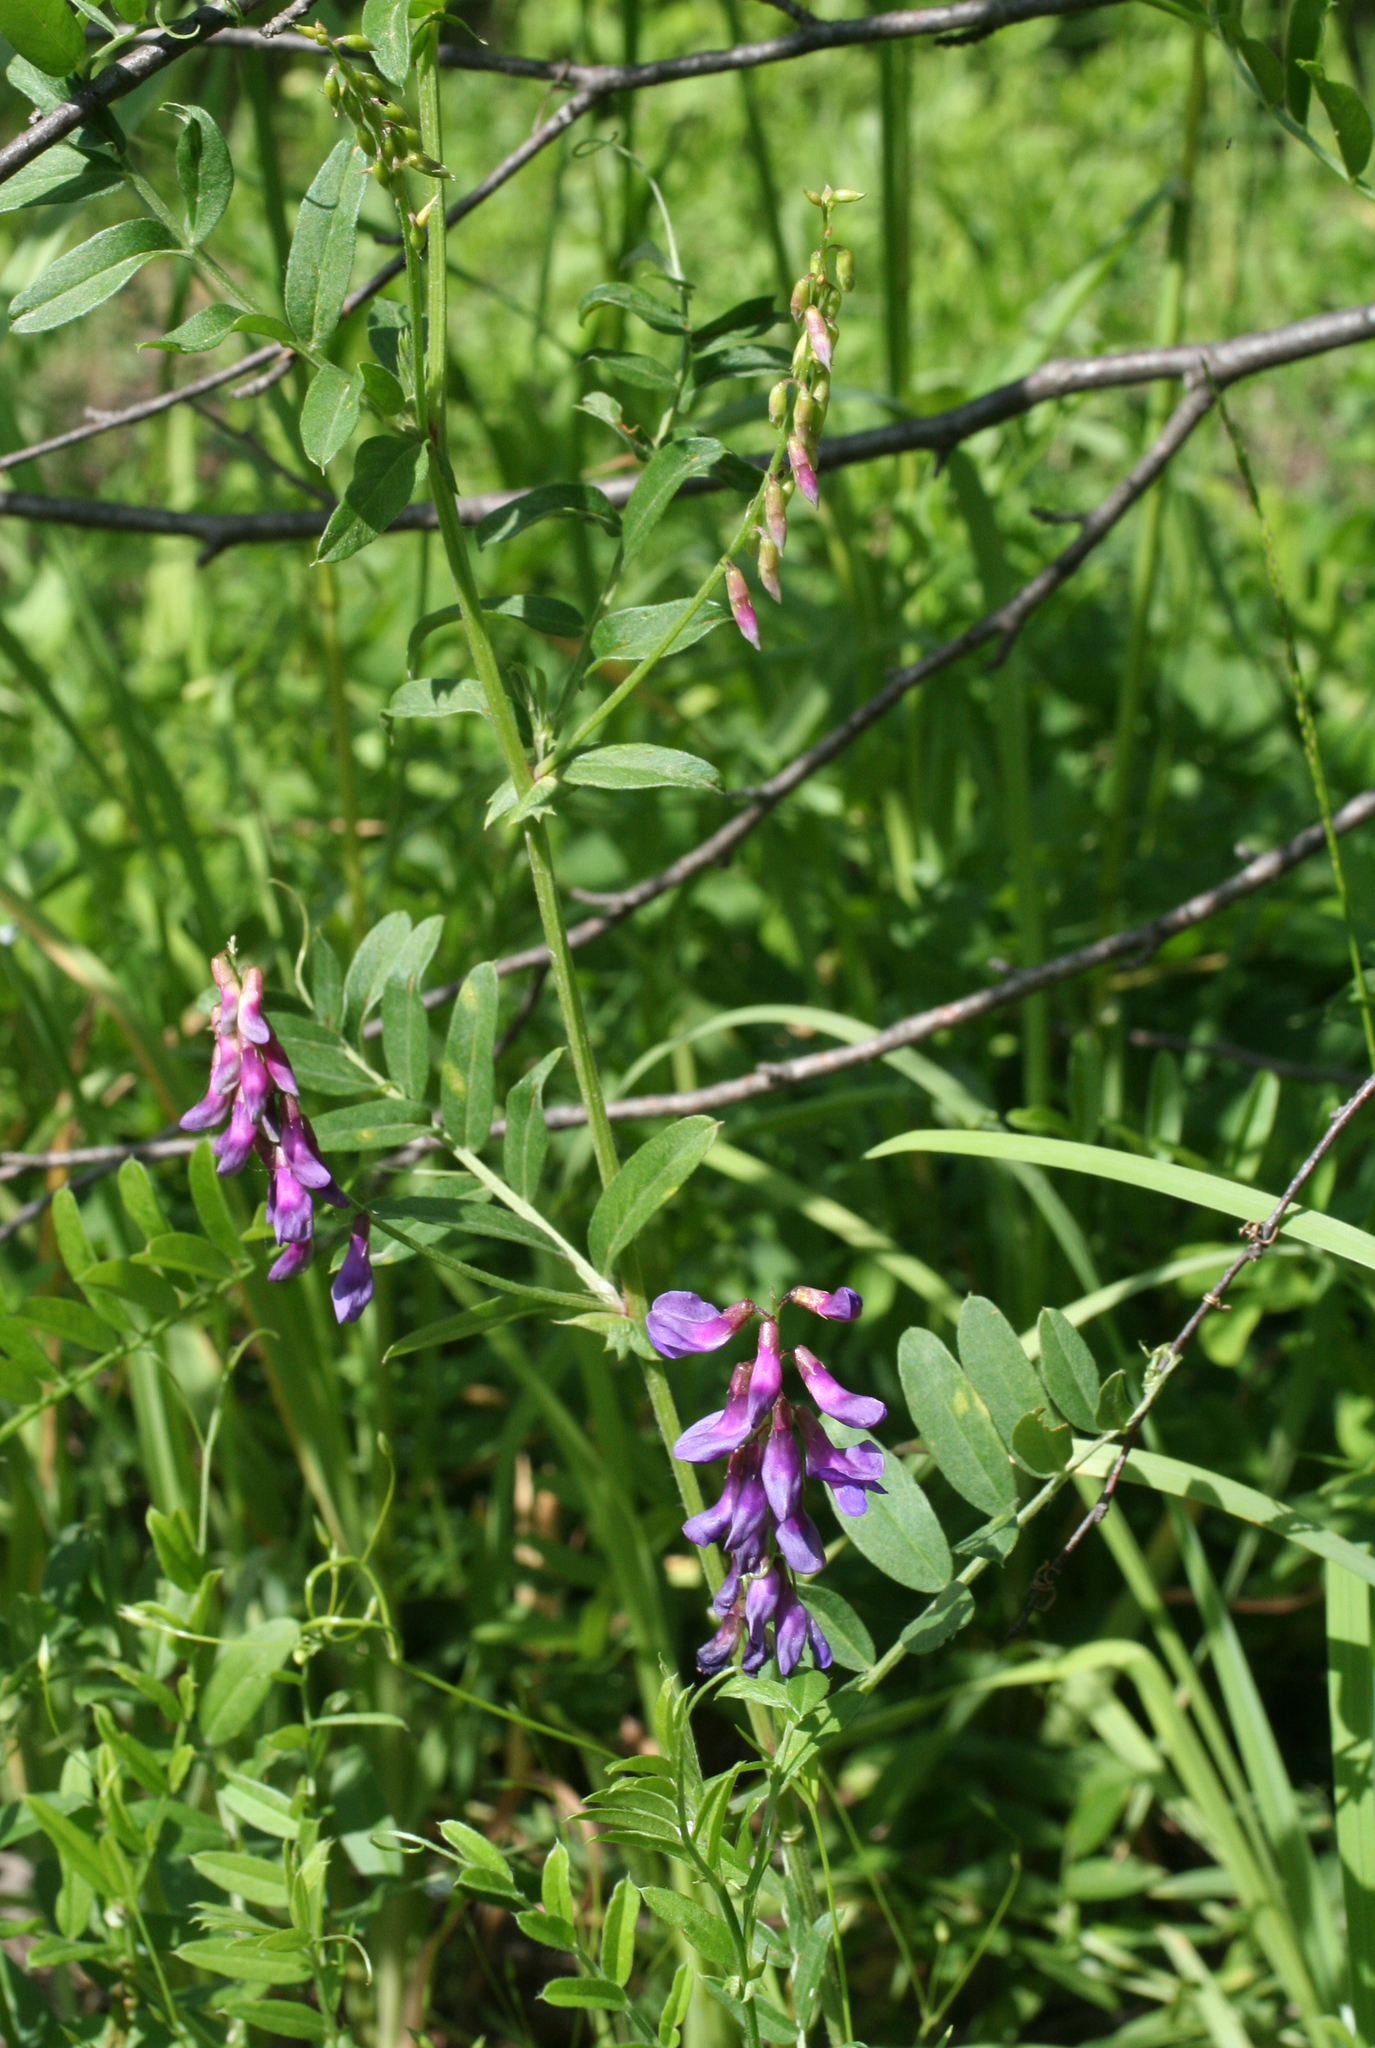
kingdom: Plantae
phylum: Tracheophyta
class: Magnoliopsida
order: Fabales
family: Fabaceae
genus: Vicia
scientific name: Vicia amoena
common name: Cheder ebs
